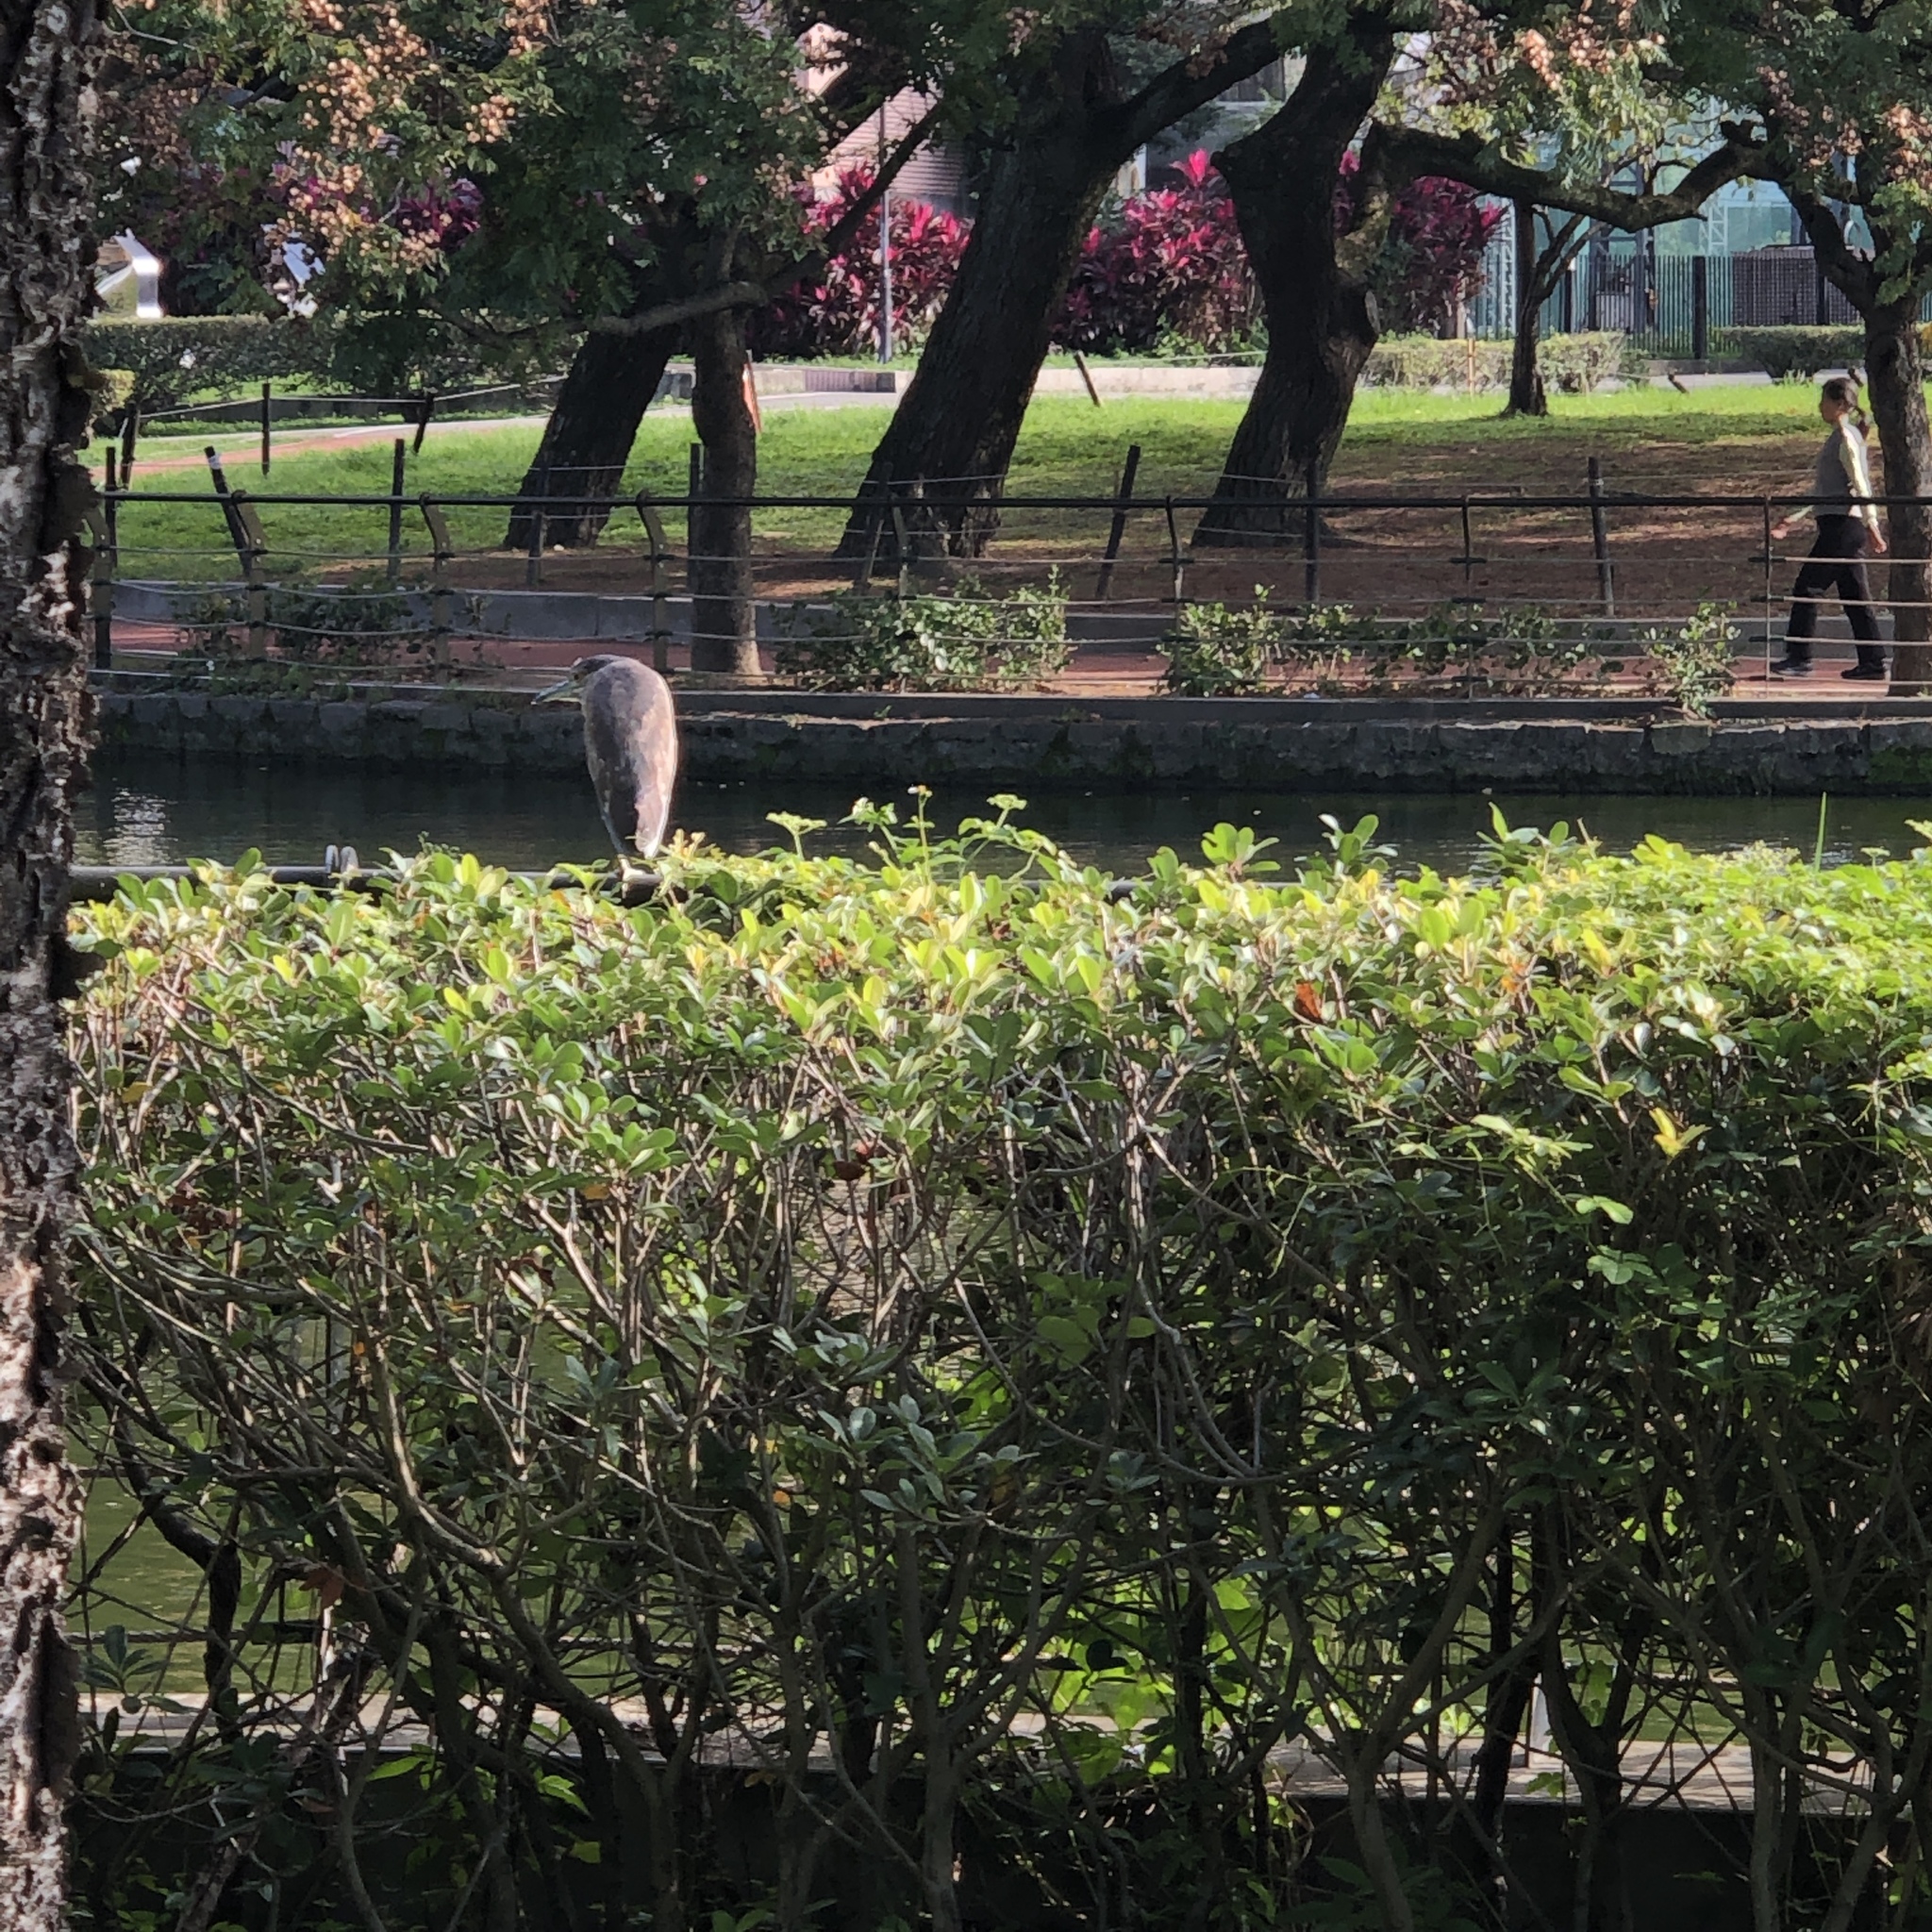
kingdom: Animalia
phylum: Chordata
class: Aves
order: Pelecaniformes
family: Ardeidae
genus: Nycticorax
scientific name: Nycticorax nycticorax
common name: Black-crowned night heron
